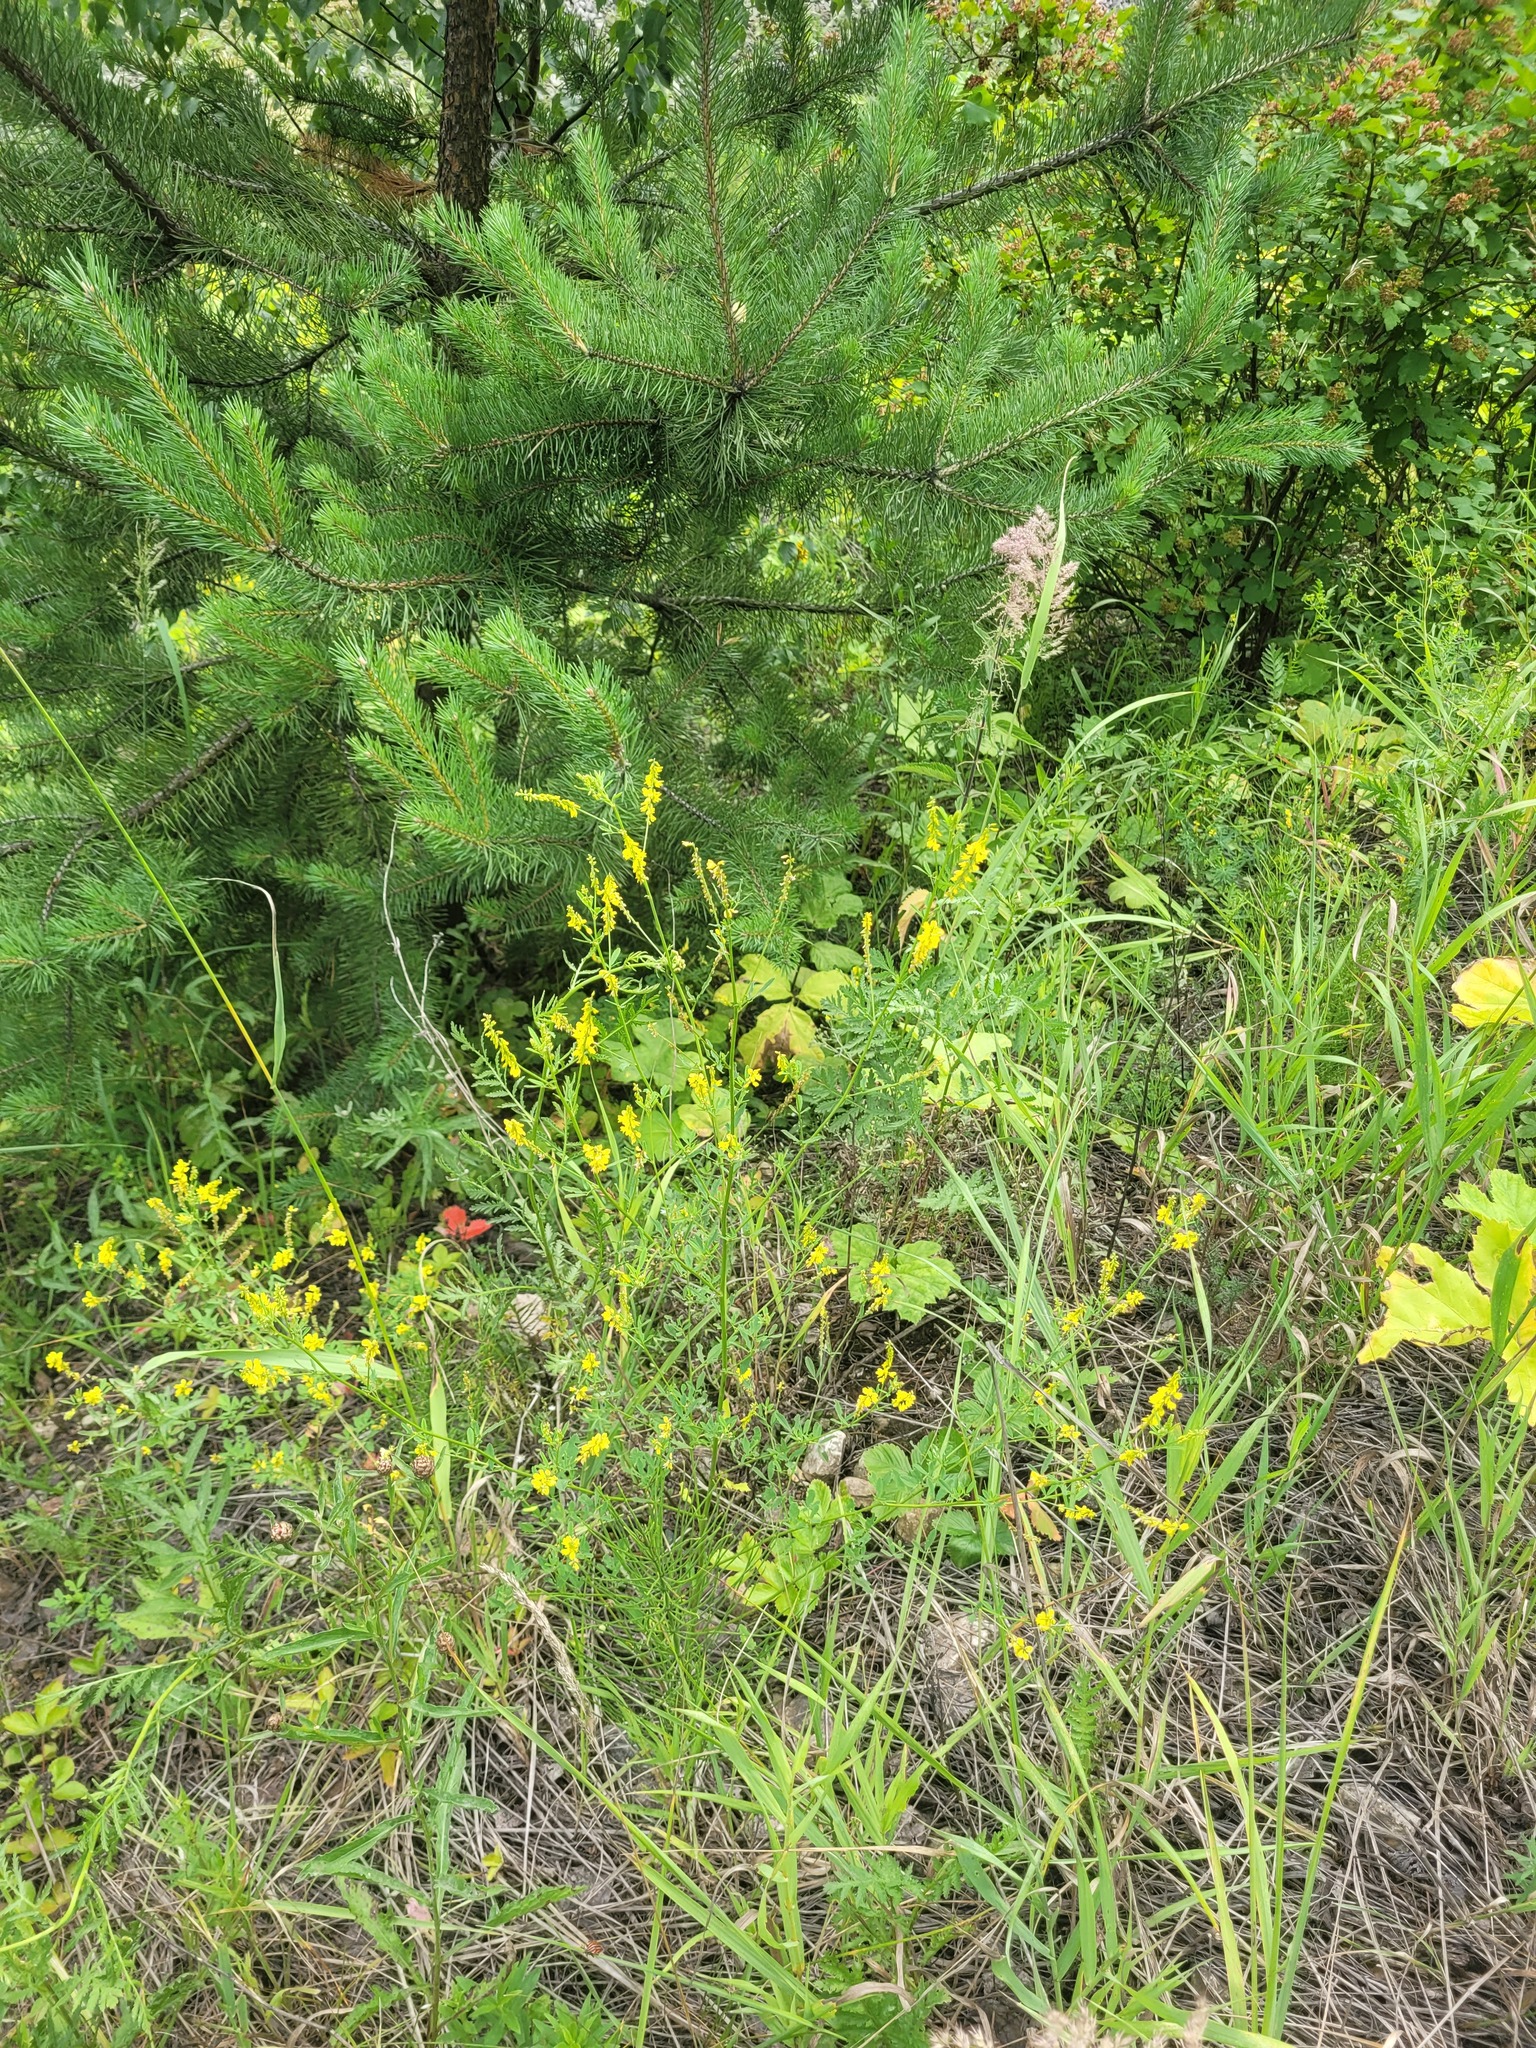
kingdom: Plantae
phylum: Tracheophyta
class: Magnoliopsida
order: Fabales
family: Fabaceae
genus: Melilotus
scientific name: Melilotus officinalis
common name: Sweetclover
